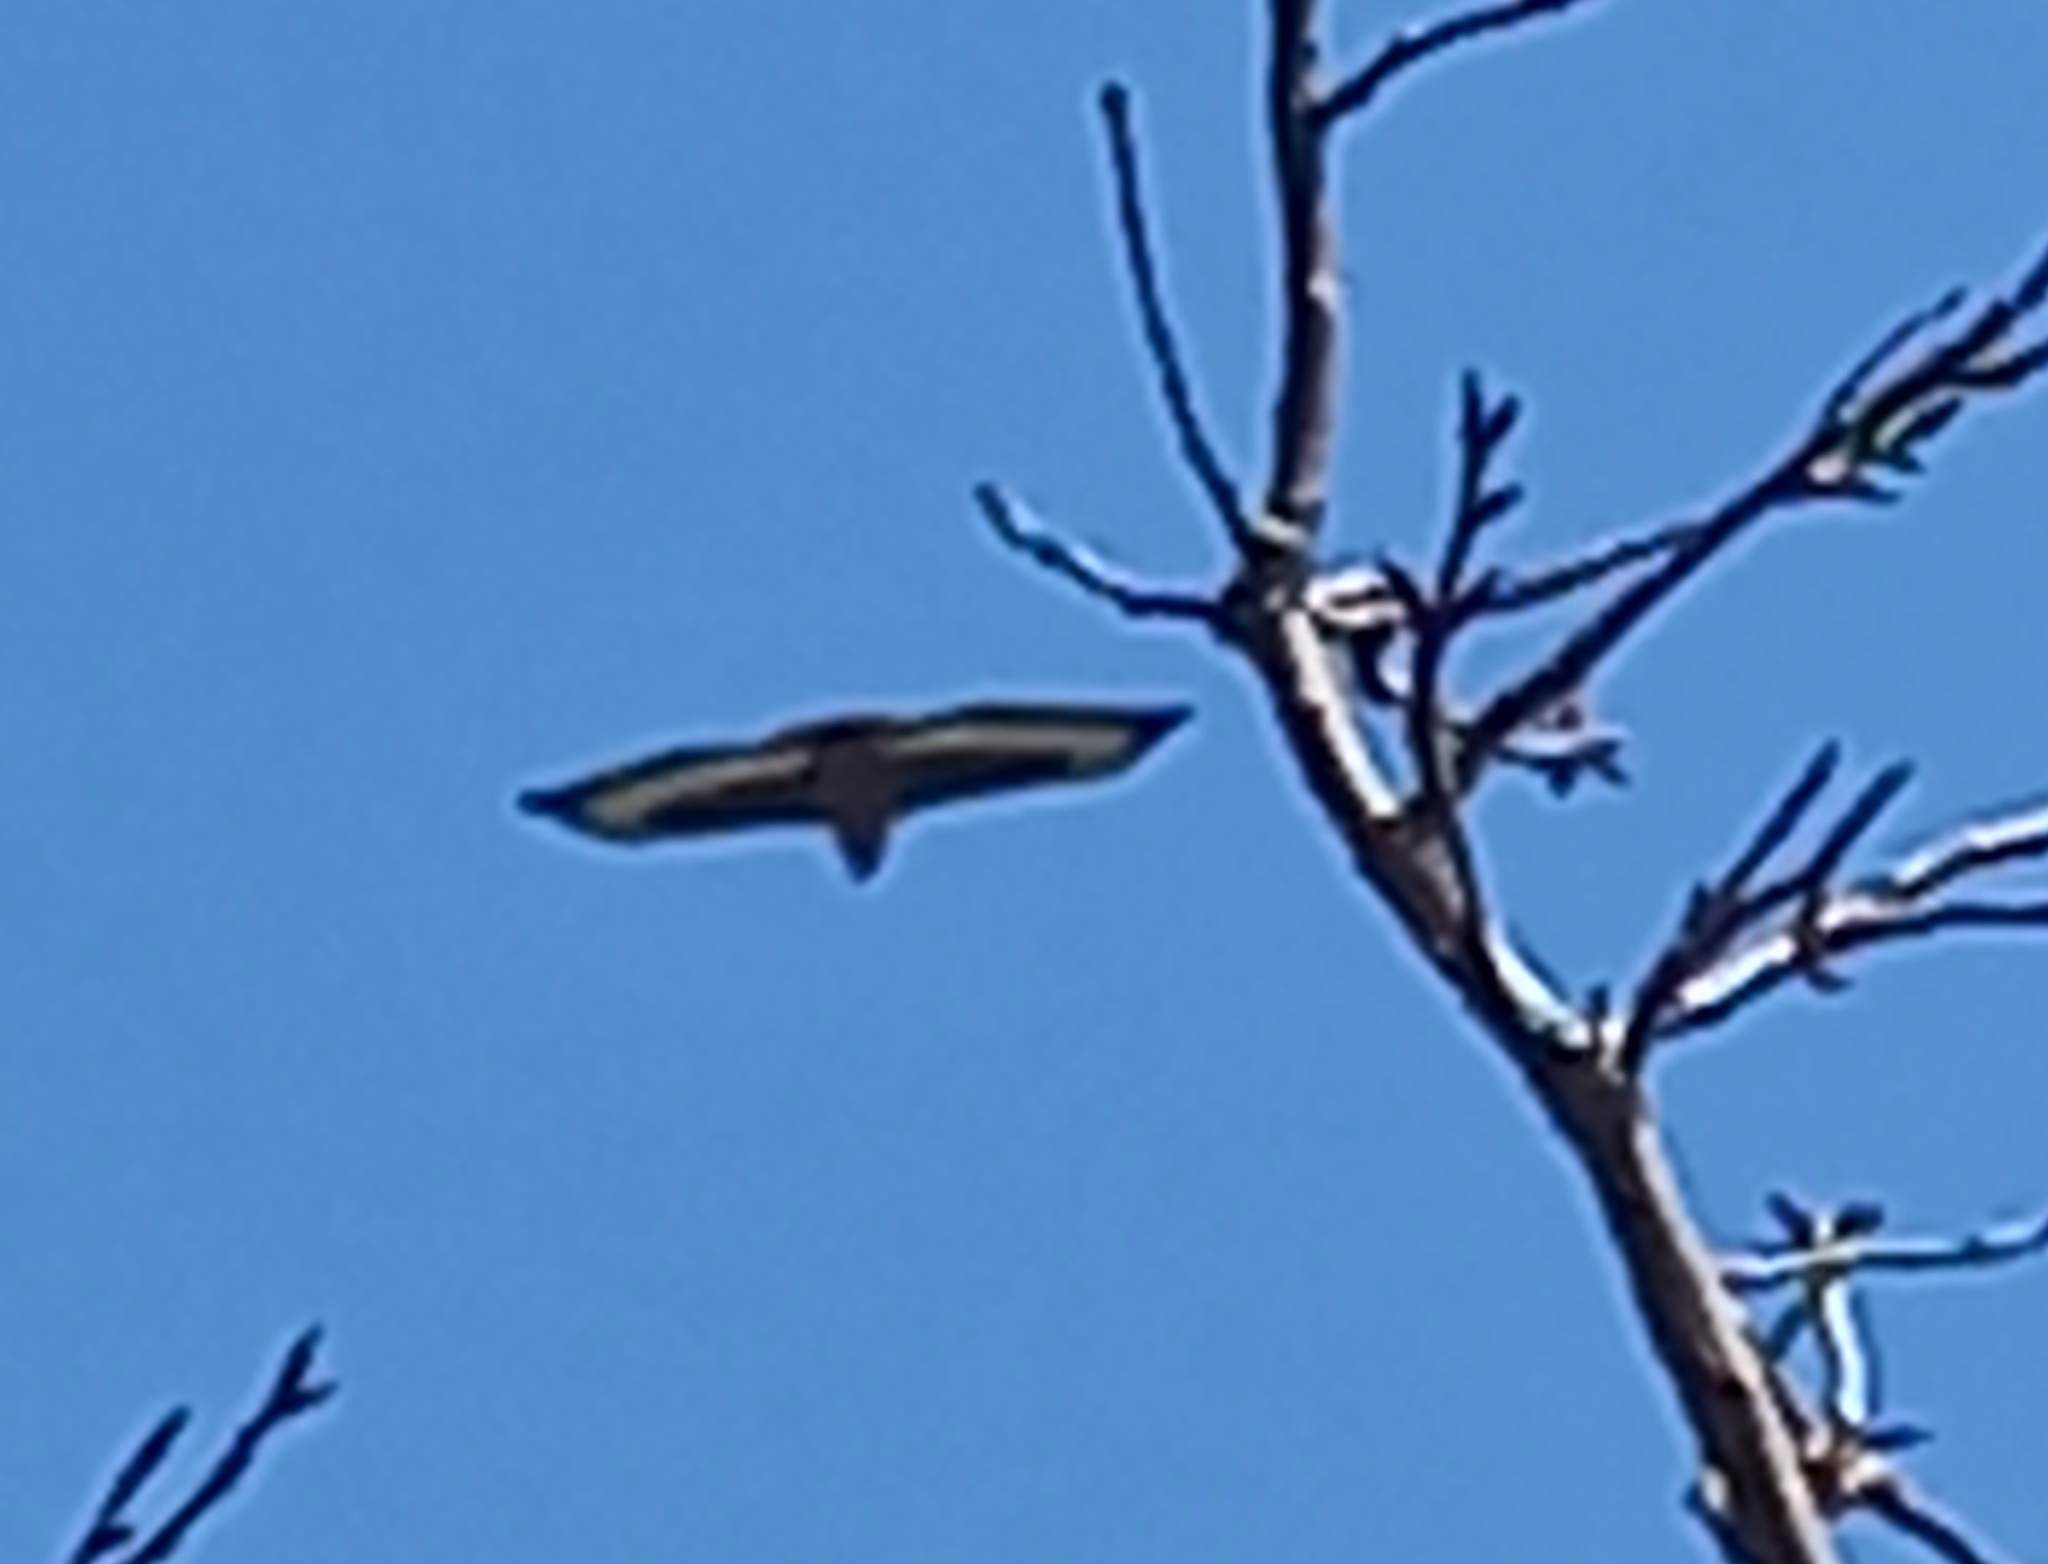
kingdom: Animalia
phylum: Chordata
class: Aves
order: Accipitriformes
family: Accipitridae
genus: Buteo
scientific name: Buteo rufofuscus
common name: Jackal buzzard
